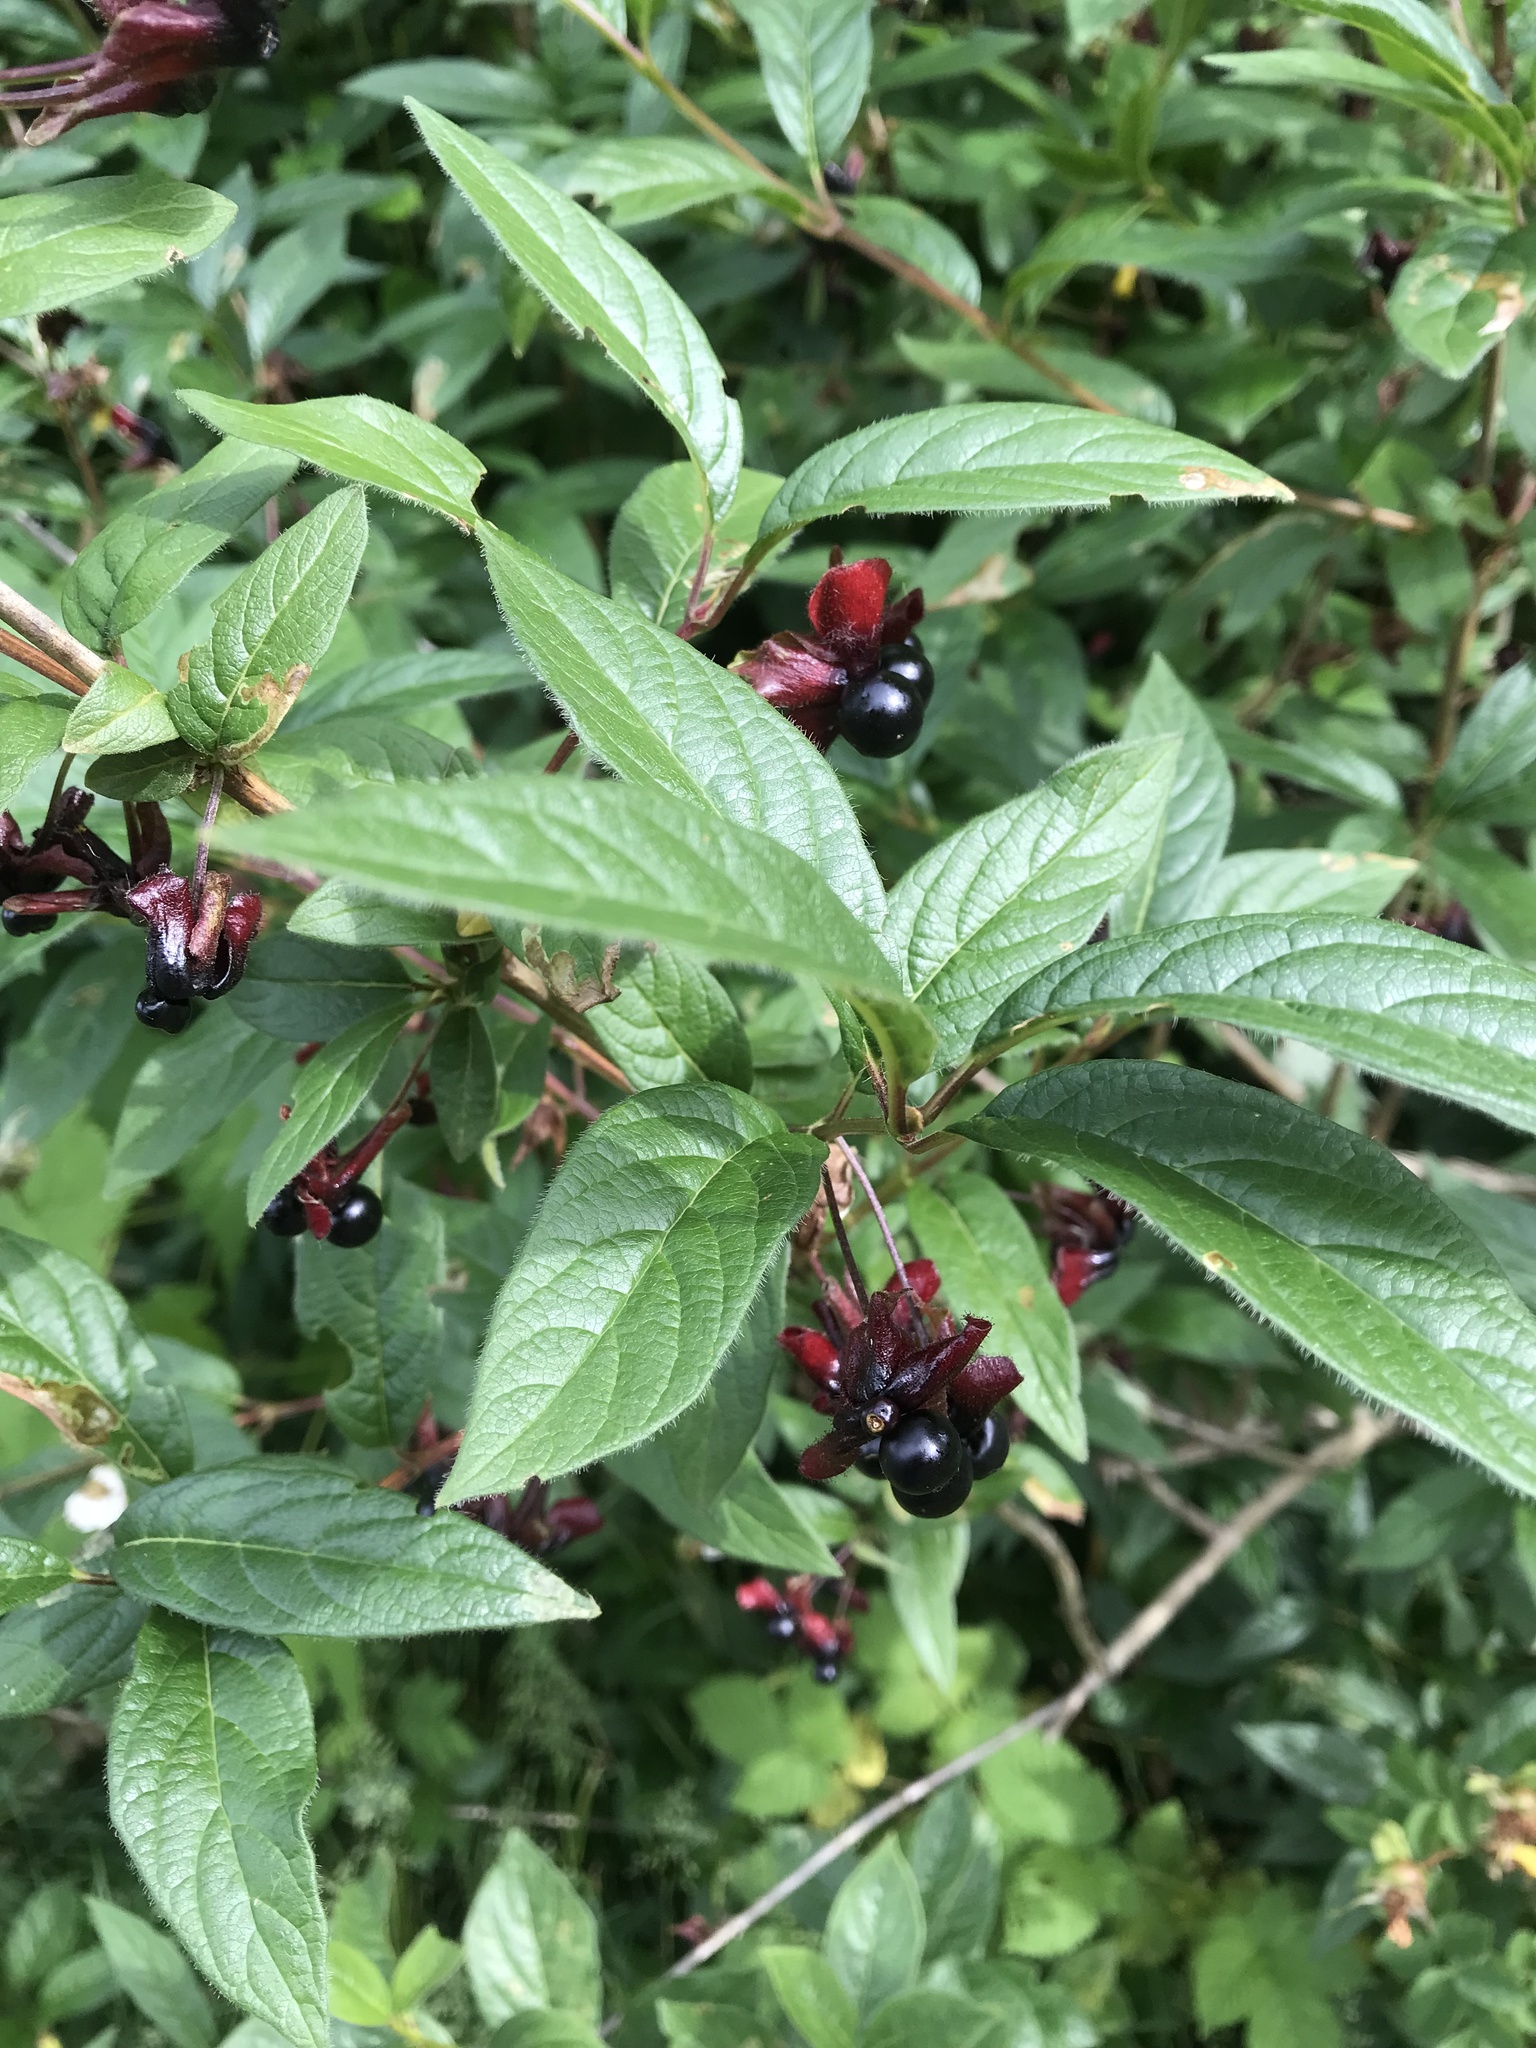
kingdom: Plantae
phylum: Tracheophyta
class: Magnoliopsida
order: Dipsacales
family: Caprifoliaceae
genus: Lonicera
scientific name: Lonicera involucrata
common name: Californian honeysuckle
